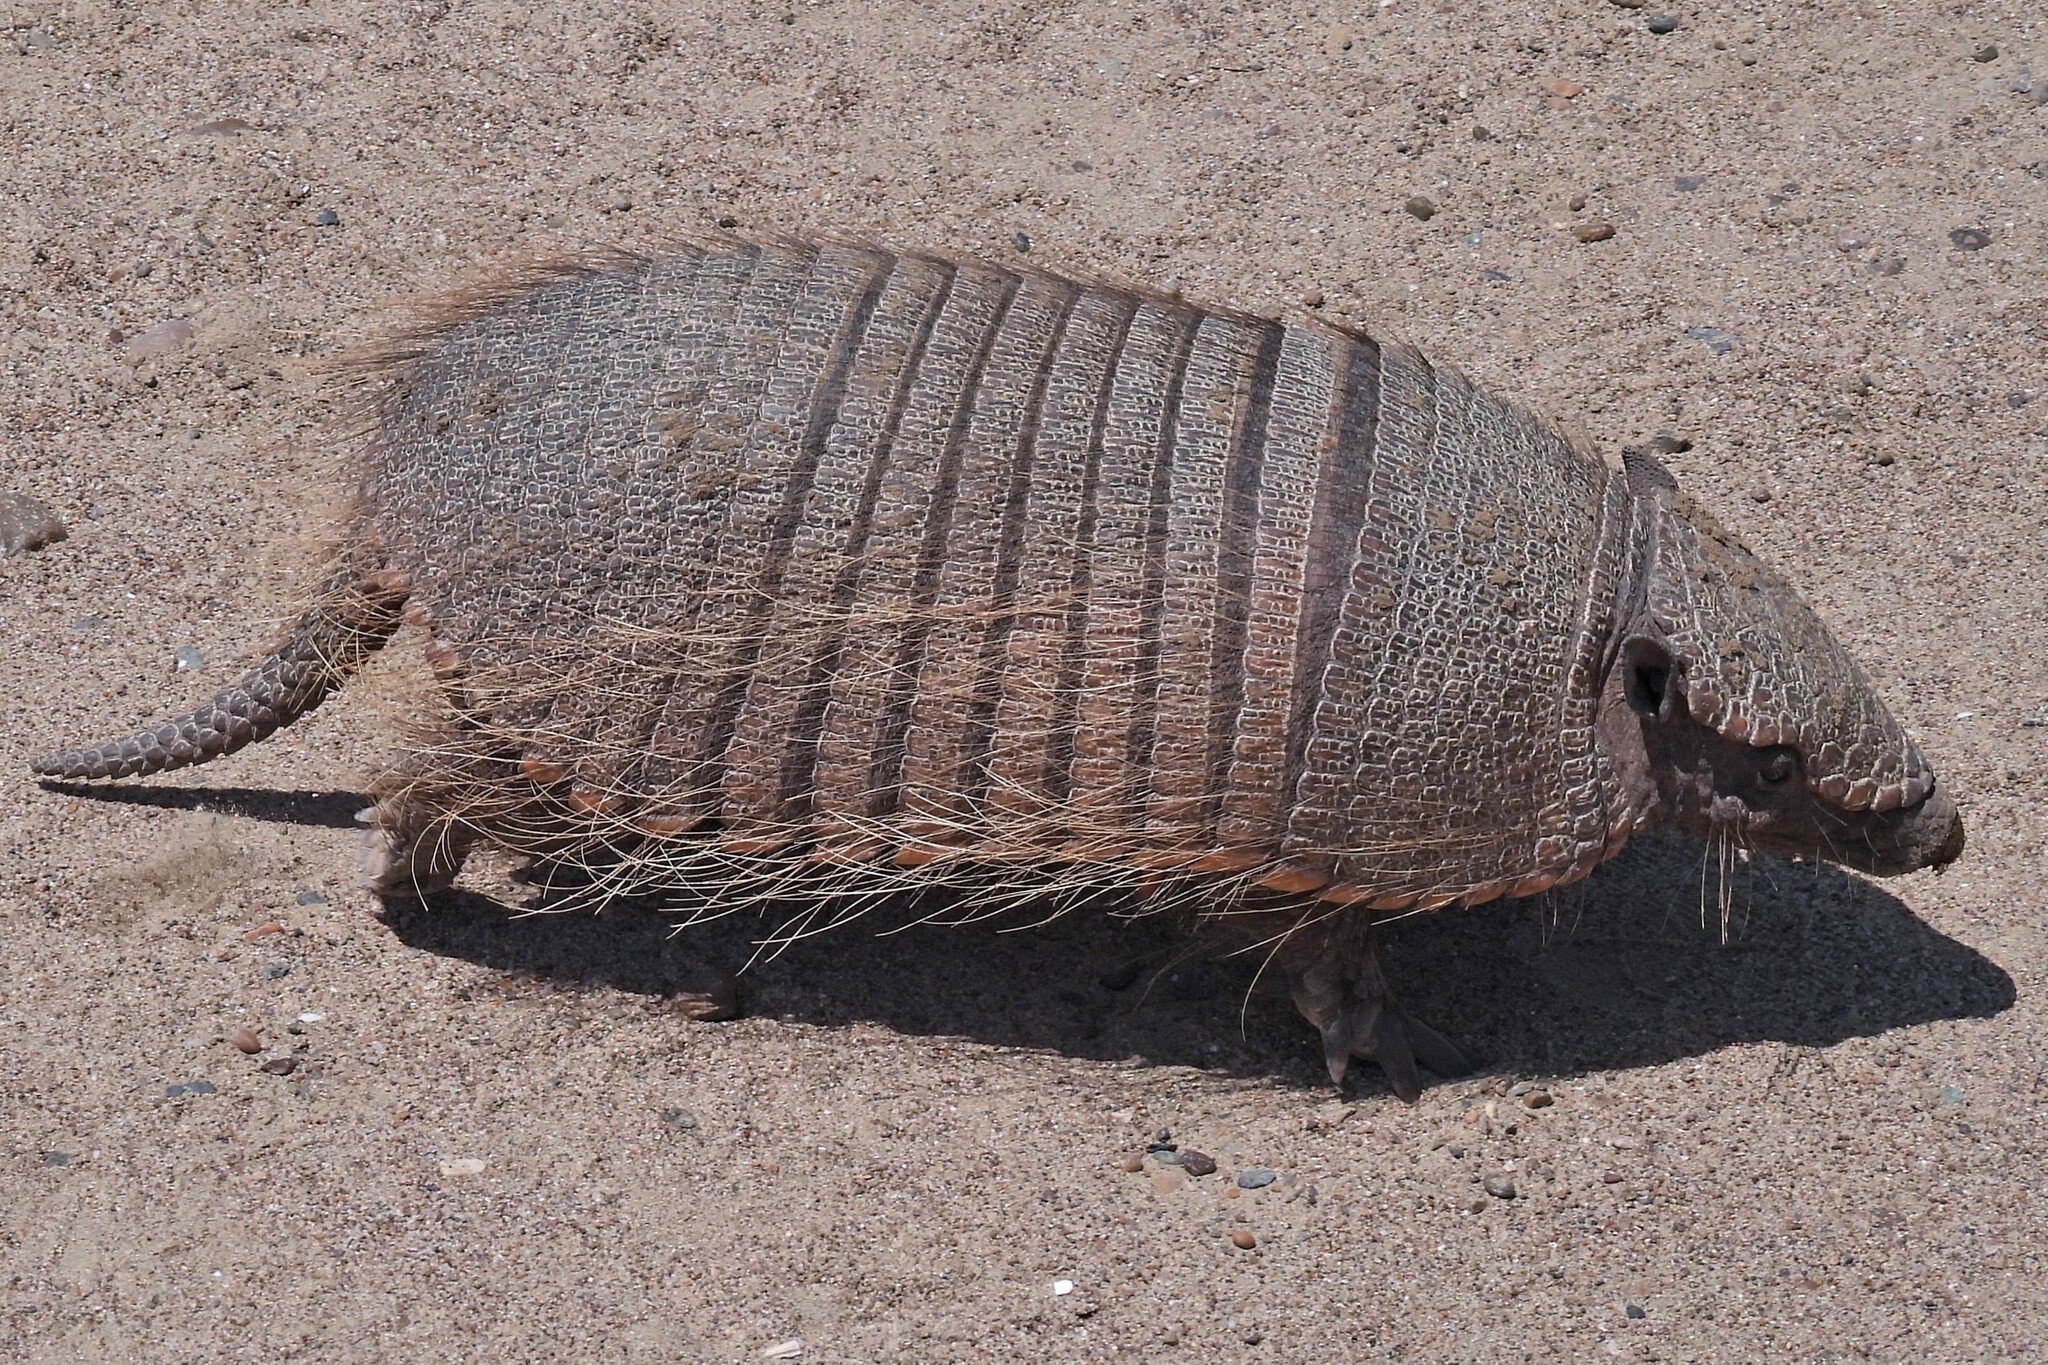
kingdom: Animalia
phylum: Chordata
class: Mammalia
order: Cingulata
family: Dasypodidae
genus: Chaetophractus
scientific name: Chaetophractus villosus
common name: Big hairy armadillo
